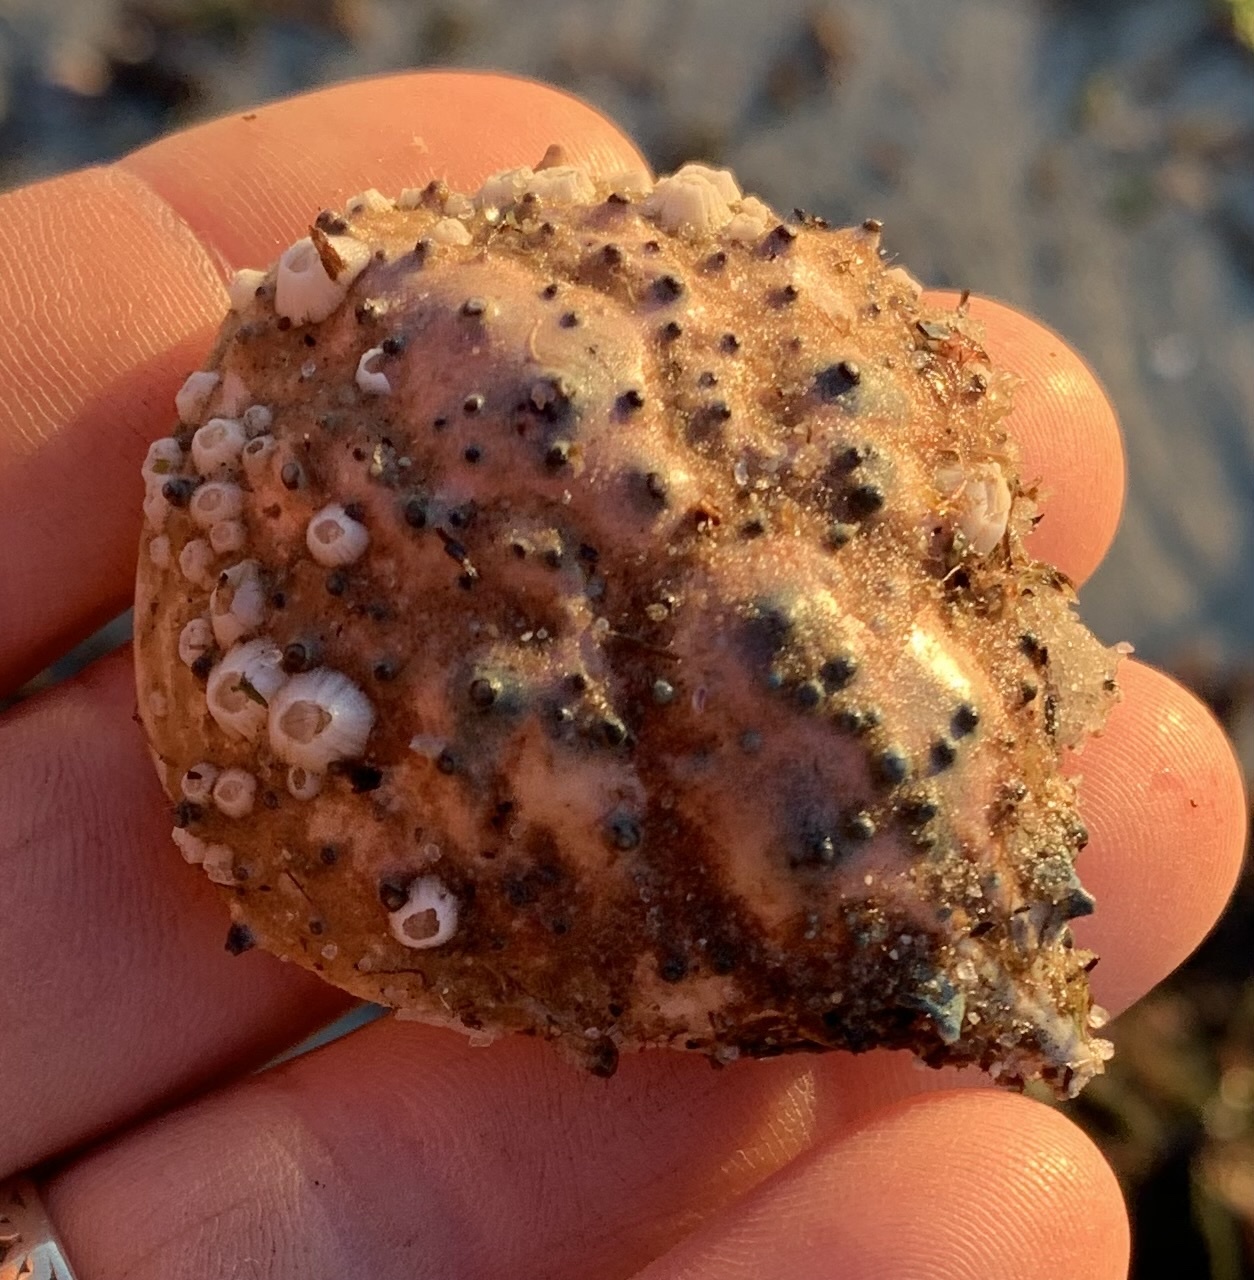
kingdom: Animalia
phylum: Arthropoda
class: Malacostraca
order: Decapoda
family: Epialtidae
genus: Libinia
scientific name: Libinia emarginata
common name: Common spider crab
